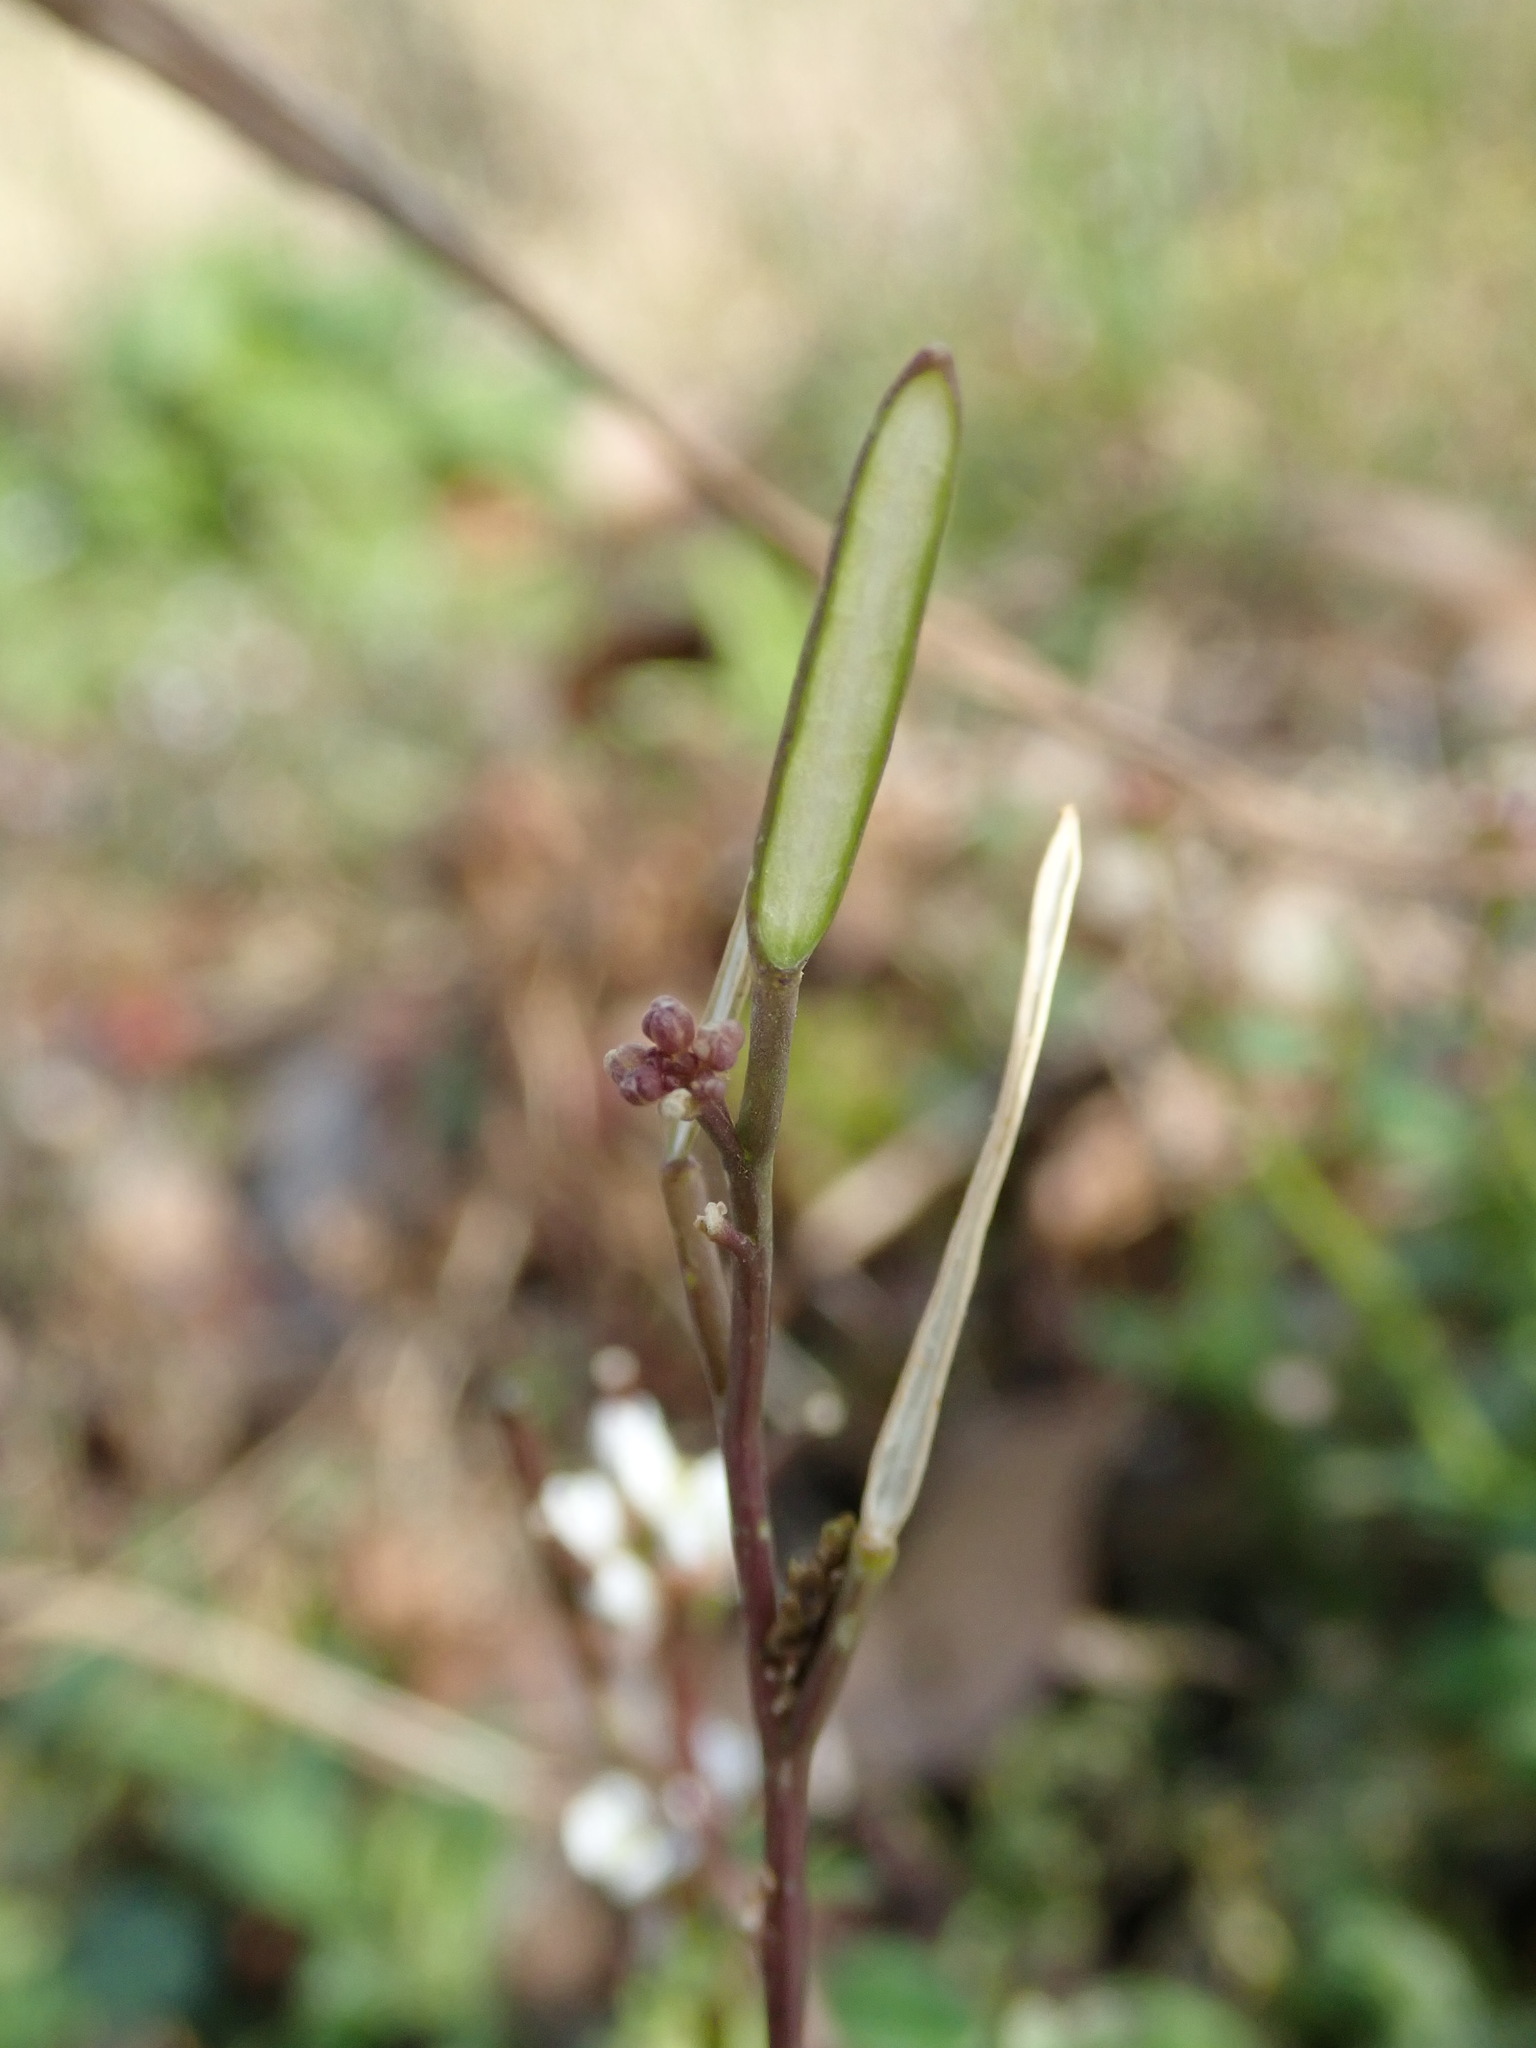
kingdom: Plantae
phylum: Tracheophyta
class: Magnoliopsida
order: Brassicales
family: Brassicaceae
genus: Cardamine
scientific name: Cardamine hirsuta
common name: Hairy bittercress
